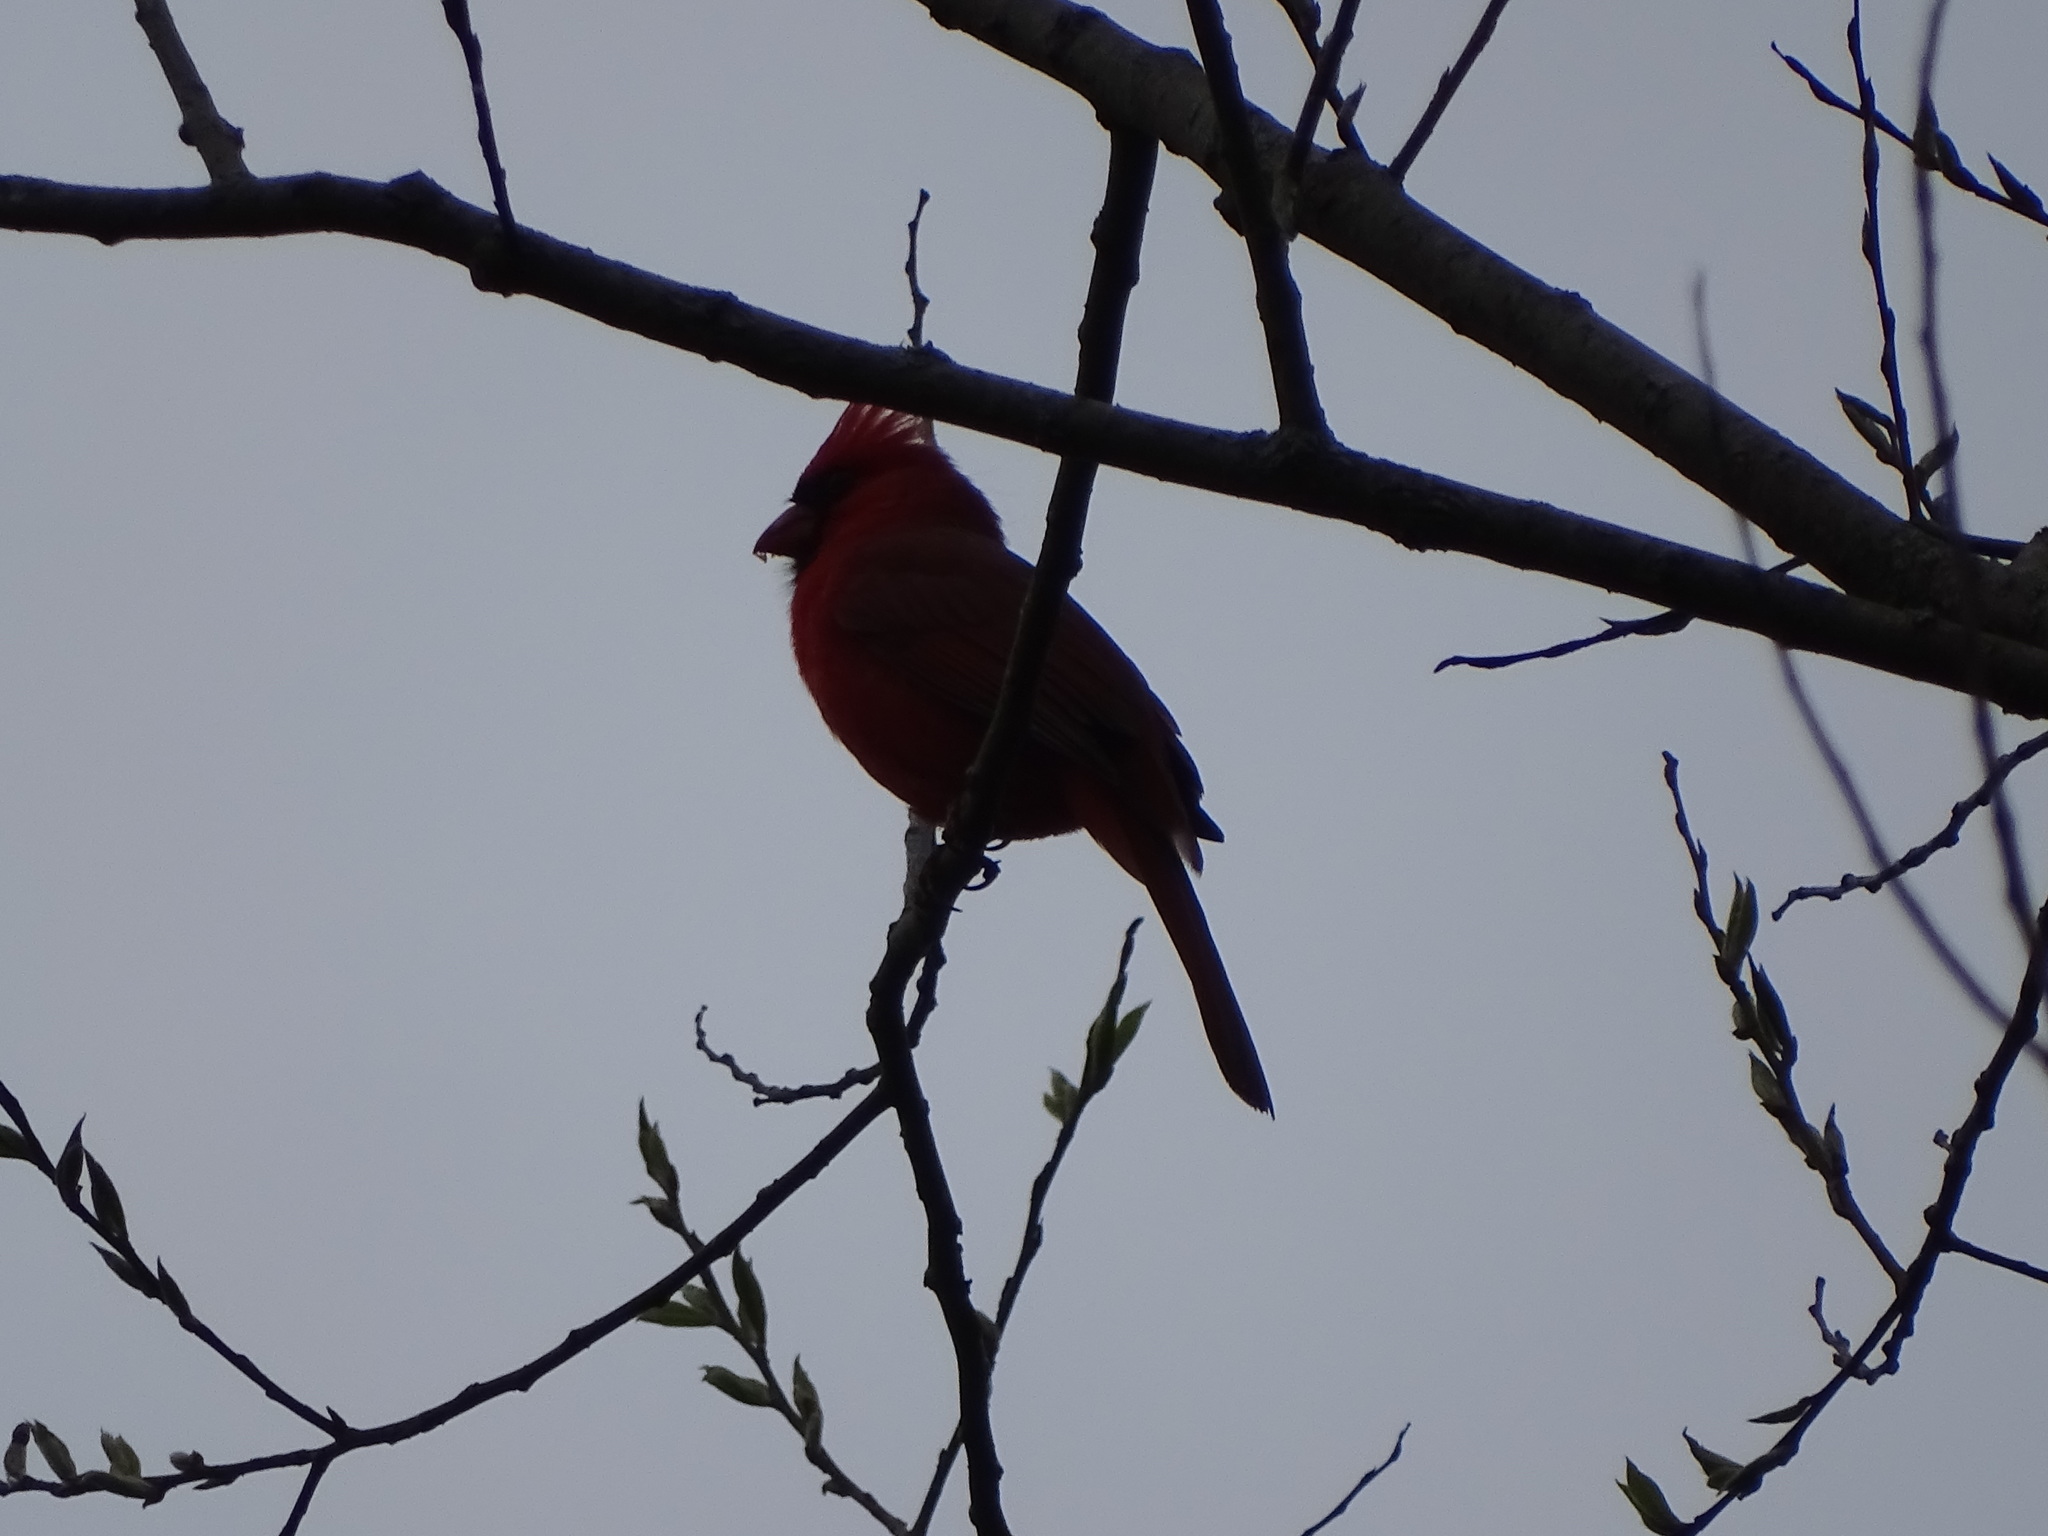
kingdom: Animalia
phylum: Chordata
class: Aves
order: Passeriformes
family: Cardinalidae
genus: Cardinalis
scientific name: Cardinalis cardinalis
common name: Northern cardinal
